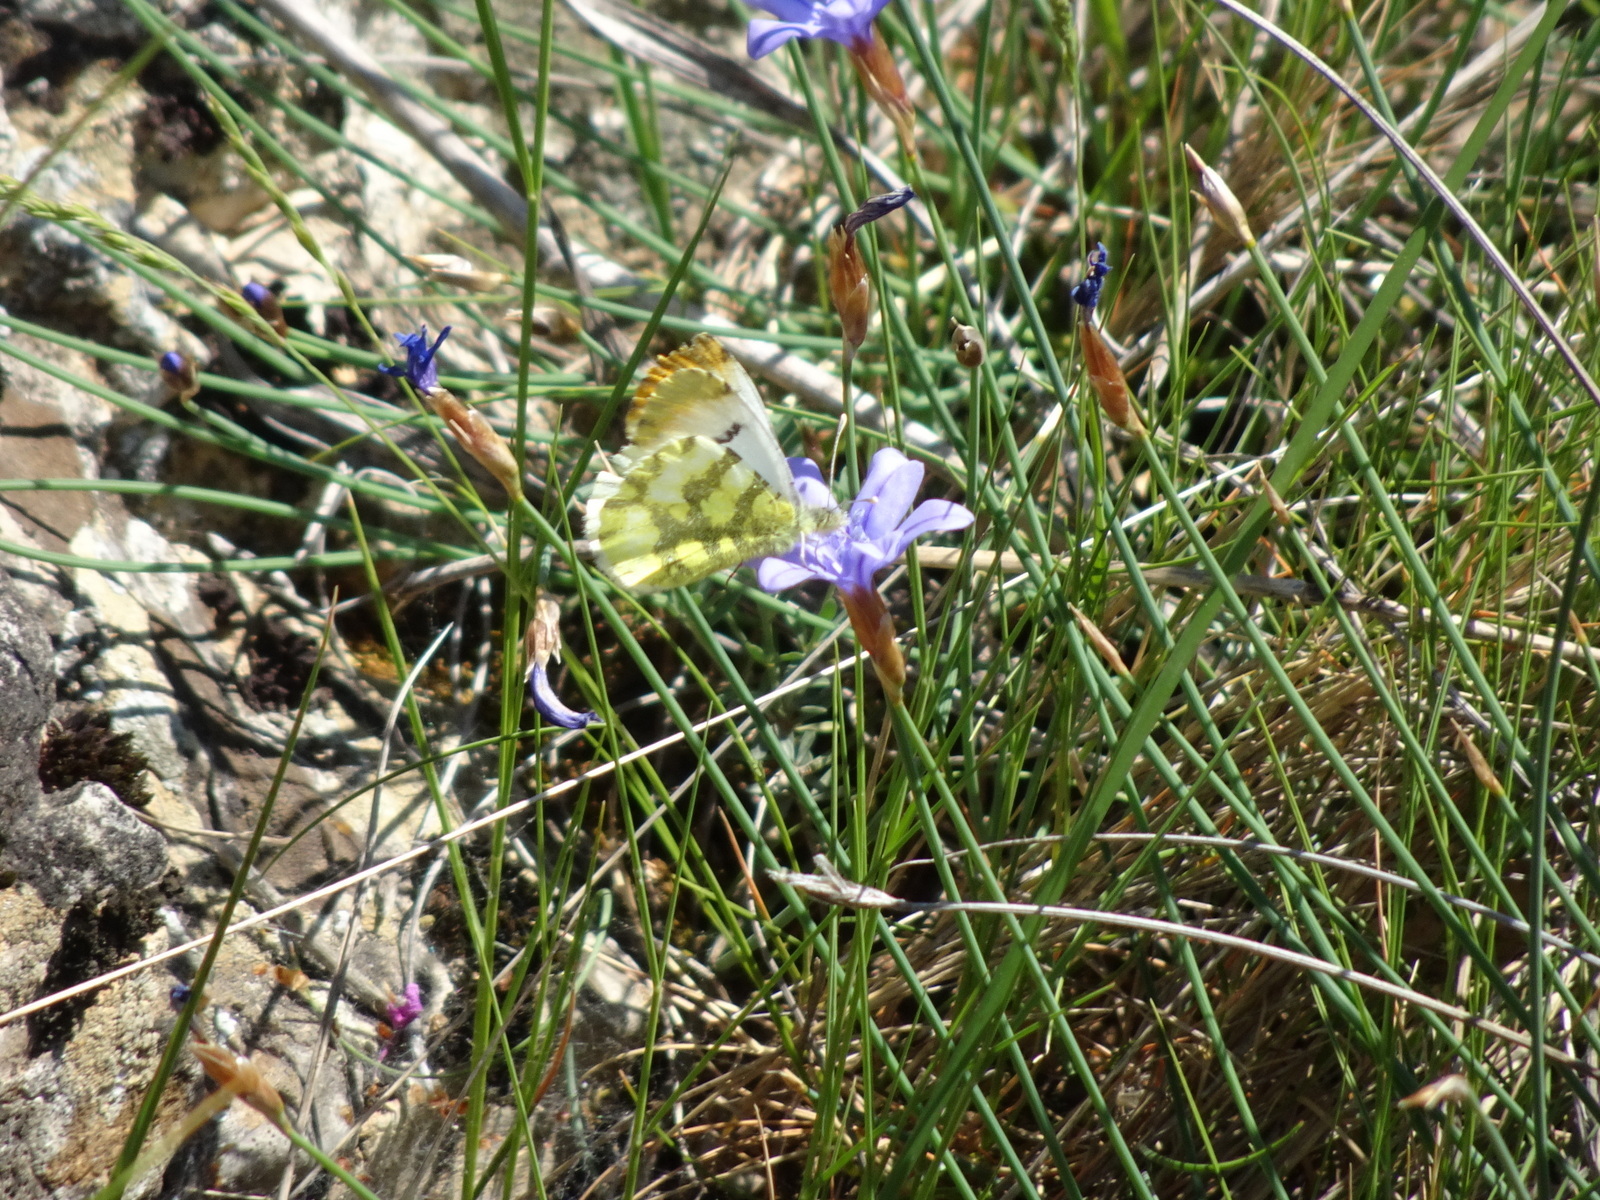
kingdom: Animalia
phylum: Arthropoda
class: Insecta
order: Lepidoptera
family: Pieridae
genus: Anthocharis
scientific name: Anthocharis euphenoides
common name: Provence orange-tip
